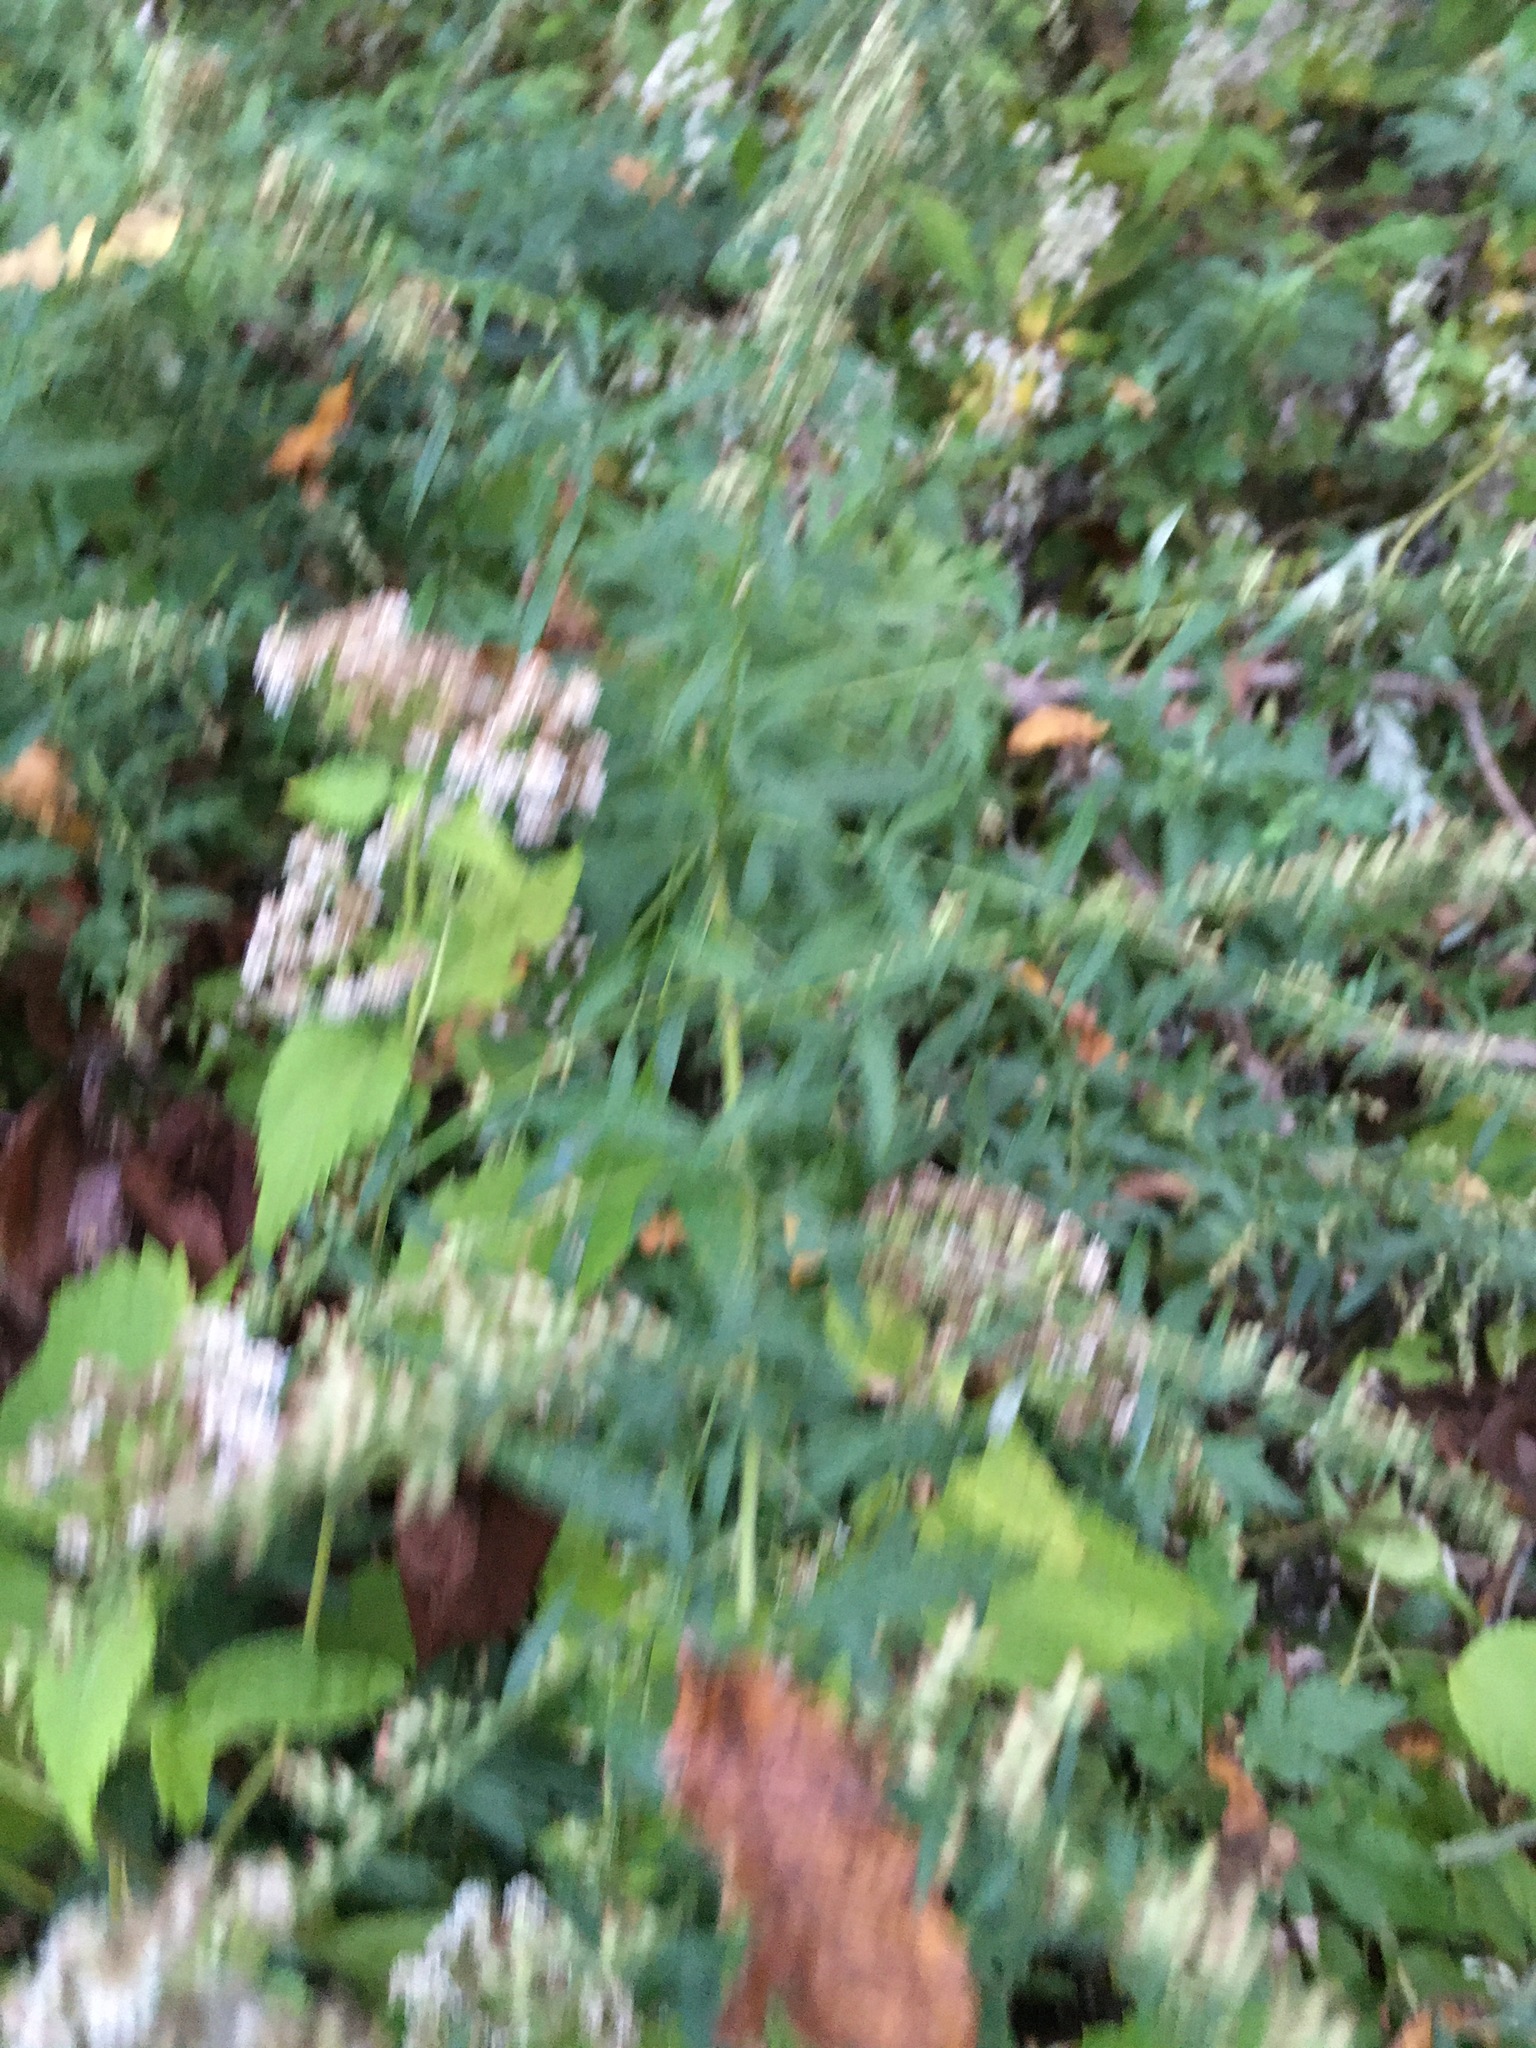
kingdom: Plantae
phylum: Tracheophyta
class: Magnoliopsida
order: Asterales
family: Asteraceae
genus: Artemisia
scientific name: Artemisia vulgaris
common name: Mugwort
